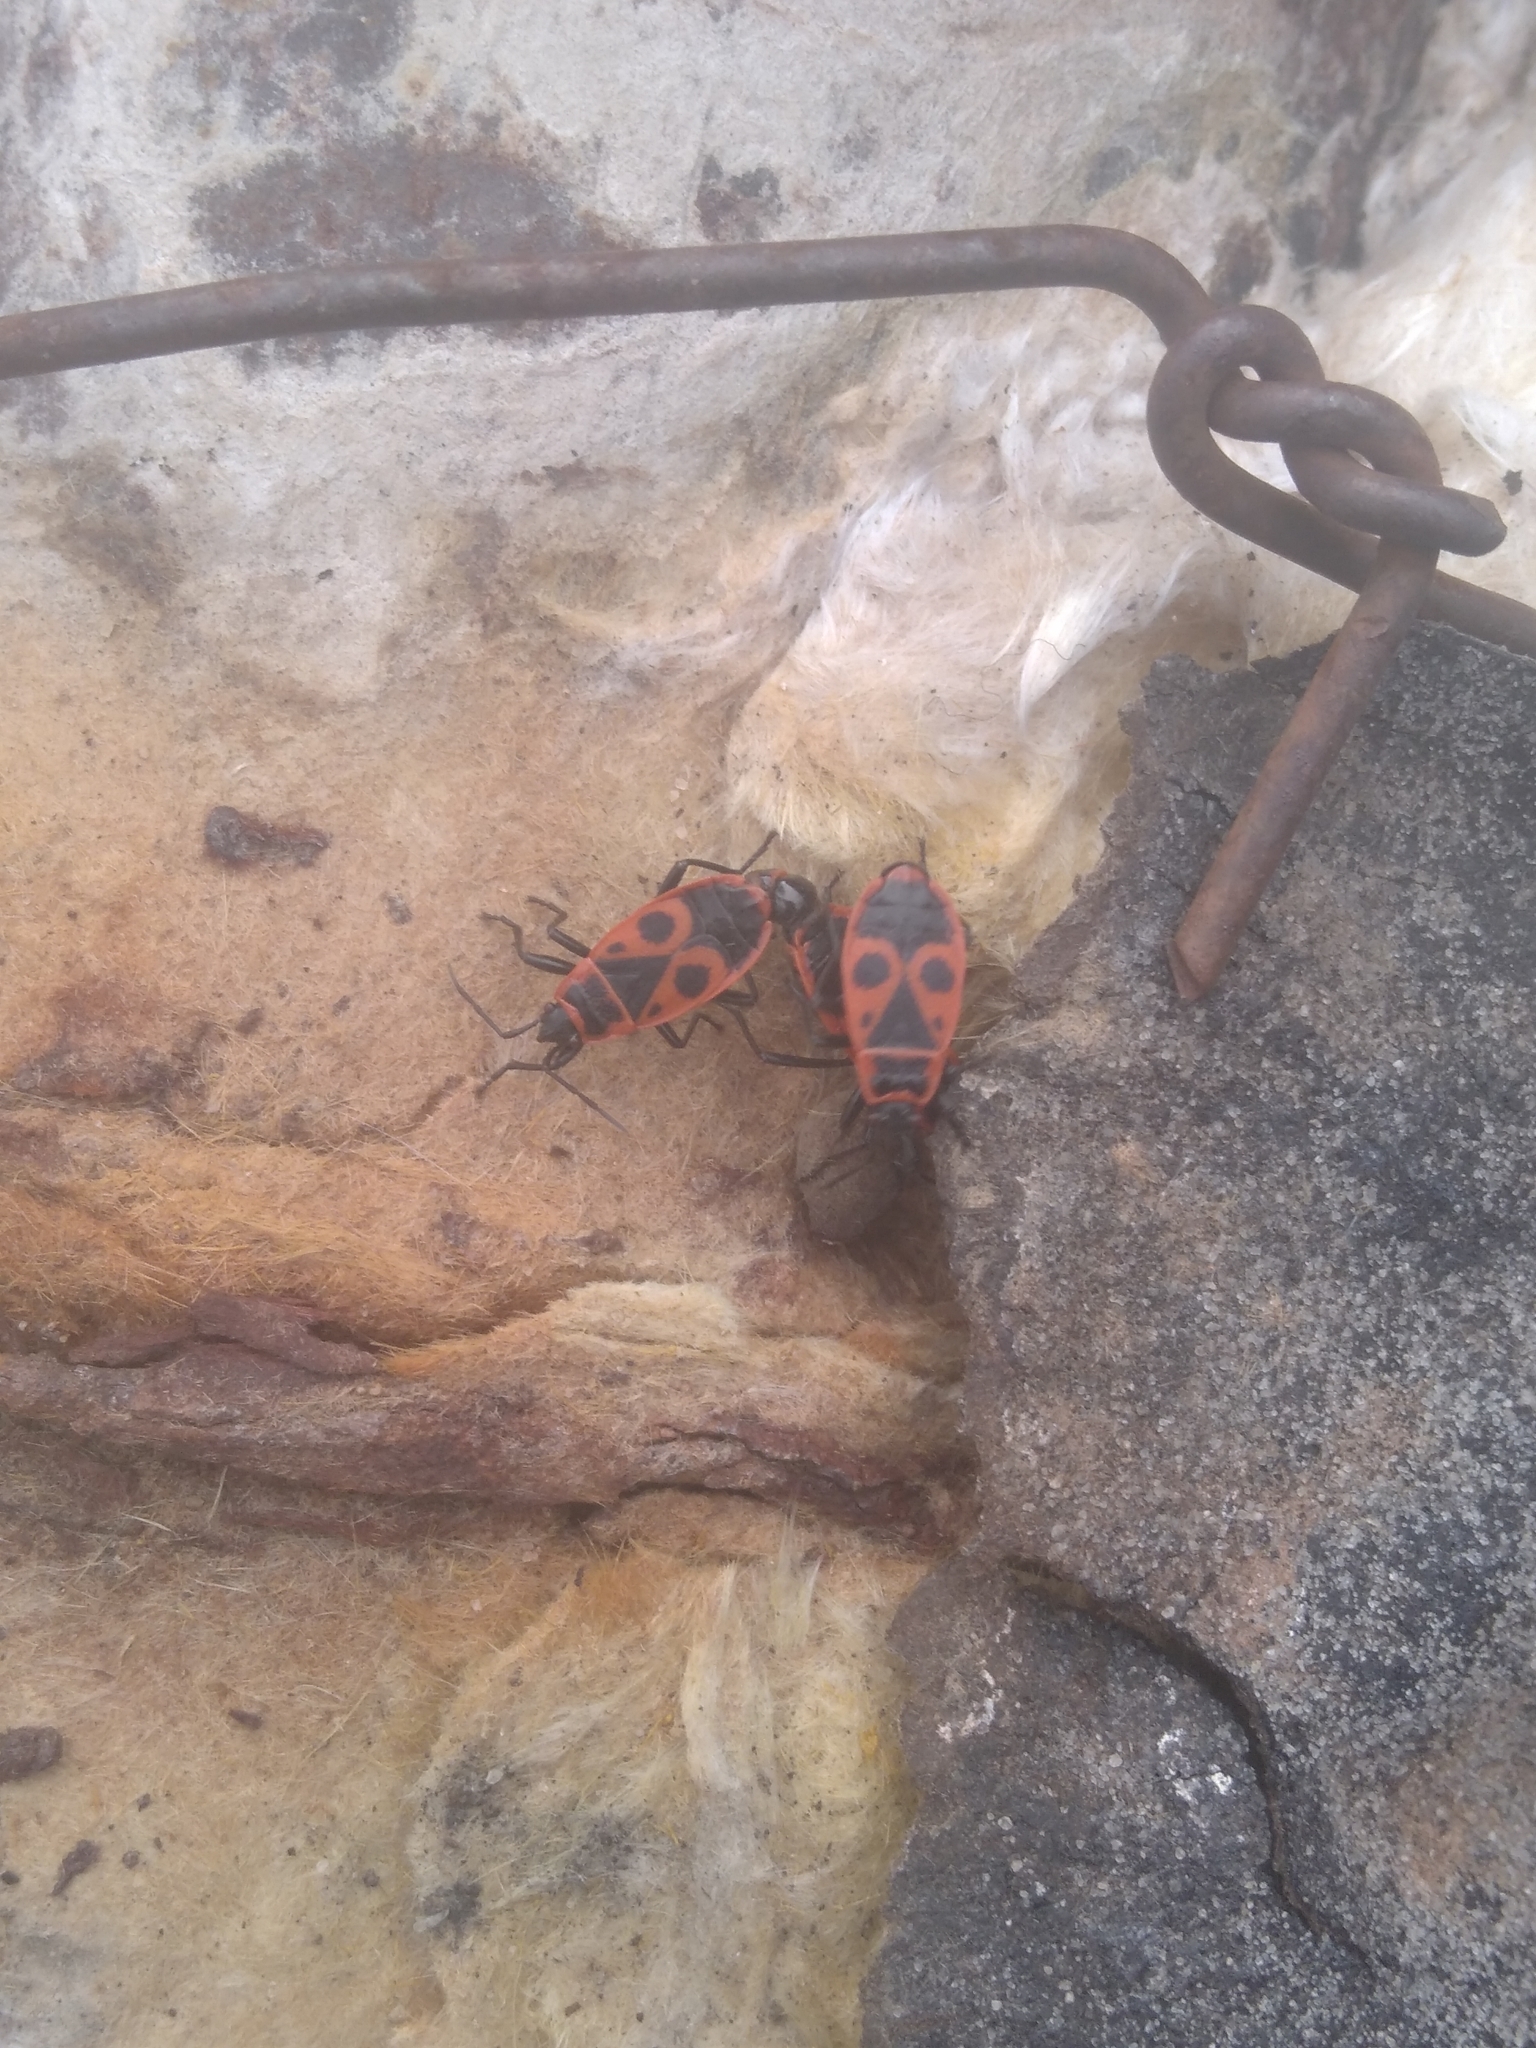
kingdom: Animalia
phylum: Arthropoda
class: Insecta
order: Hemiptera
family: Pyrrhocoridae
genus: Pyrrhocoris
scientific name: Pyrrhocoris apterus
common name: Firebug
